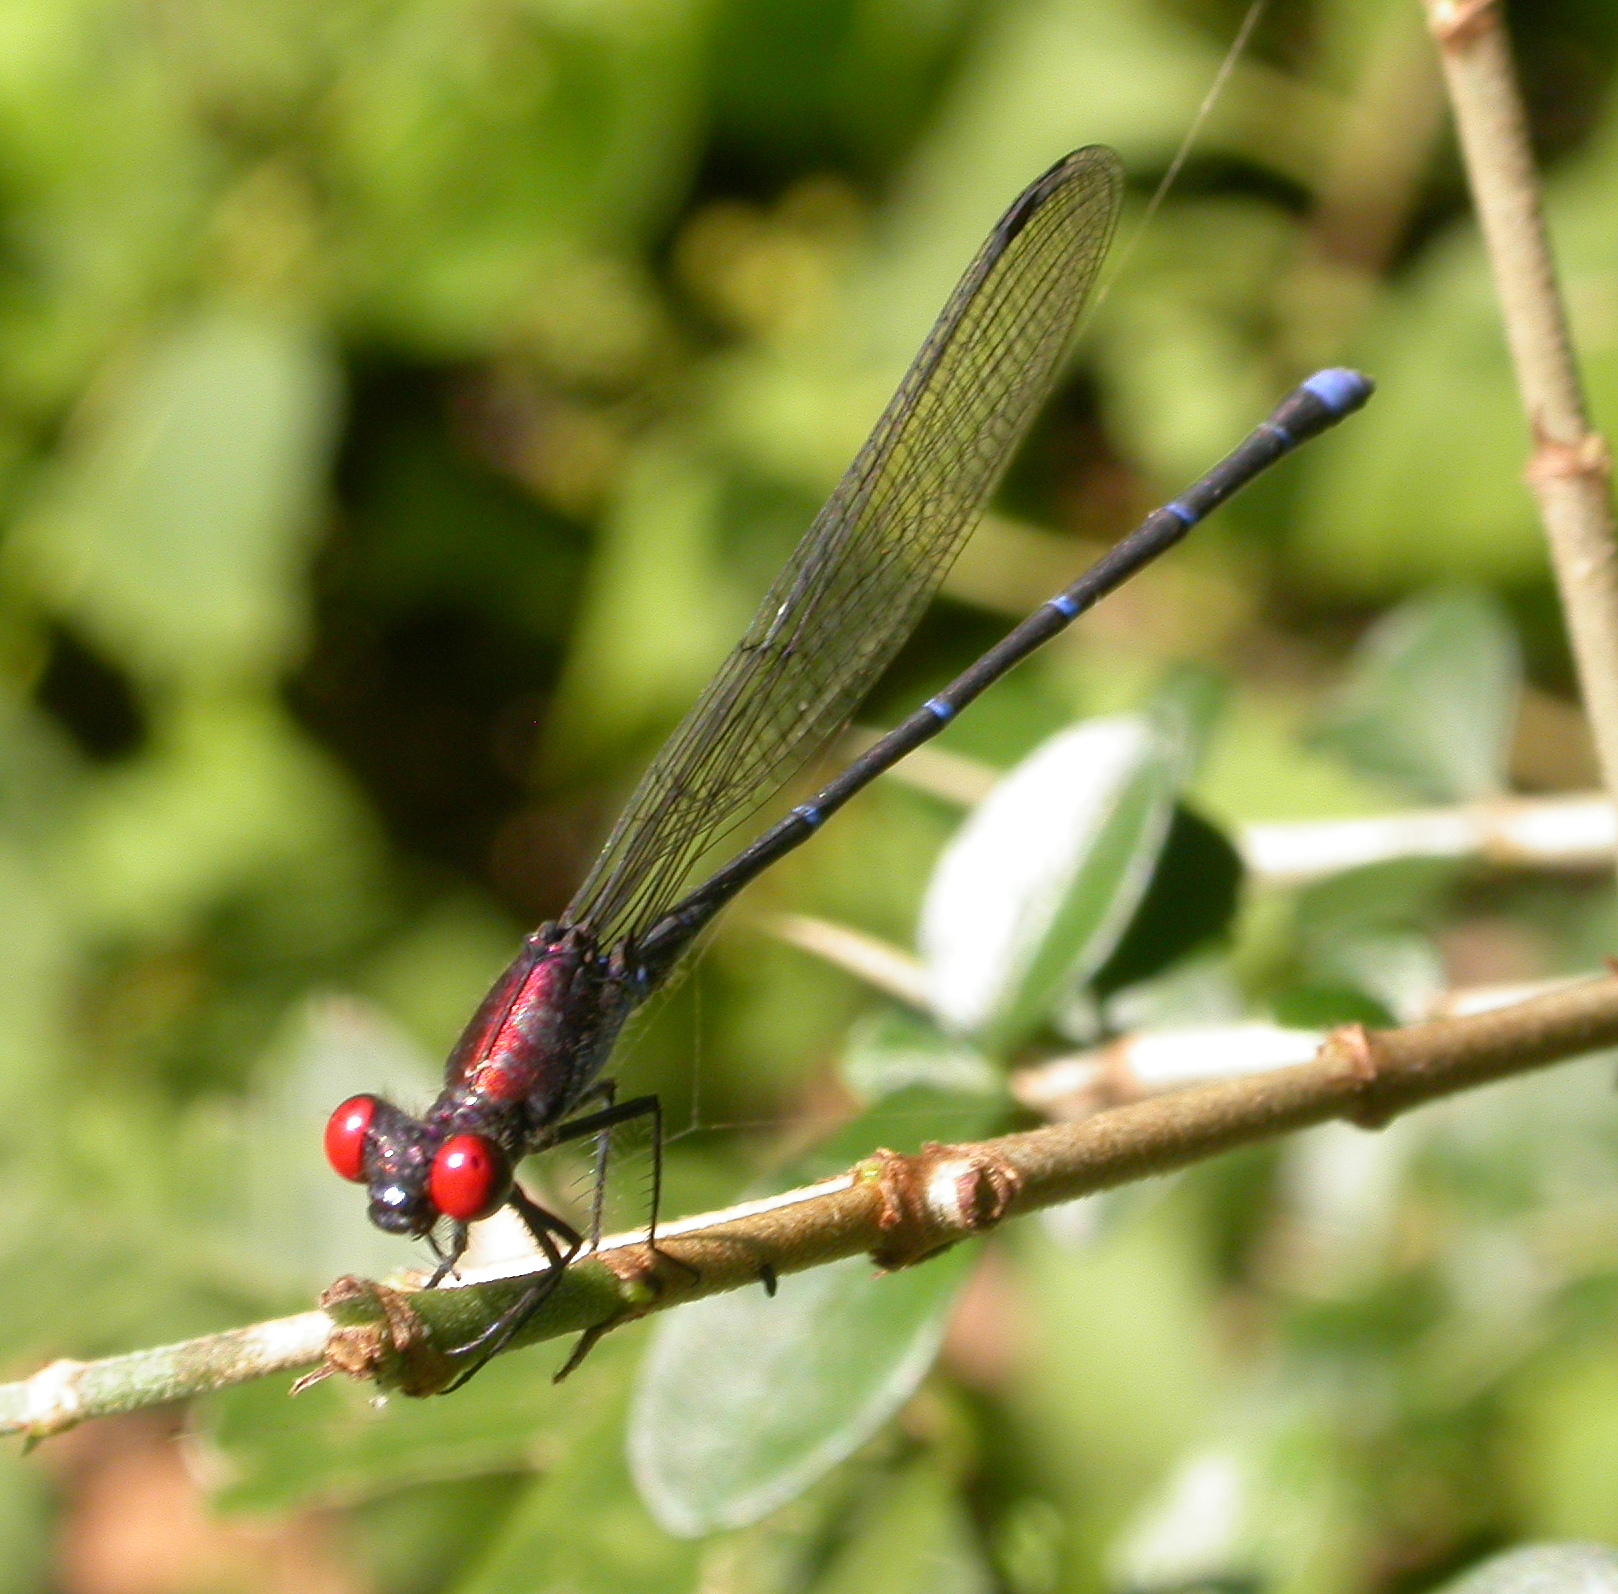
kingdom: Animalia
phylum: Arthropoda
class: Insecta
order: Odonata
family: Coenagrionidae
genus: Argia
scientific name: Argia cuprea
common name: Coppery dancer
